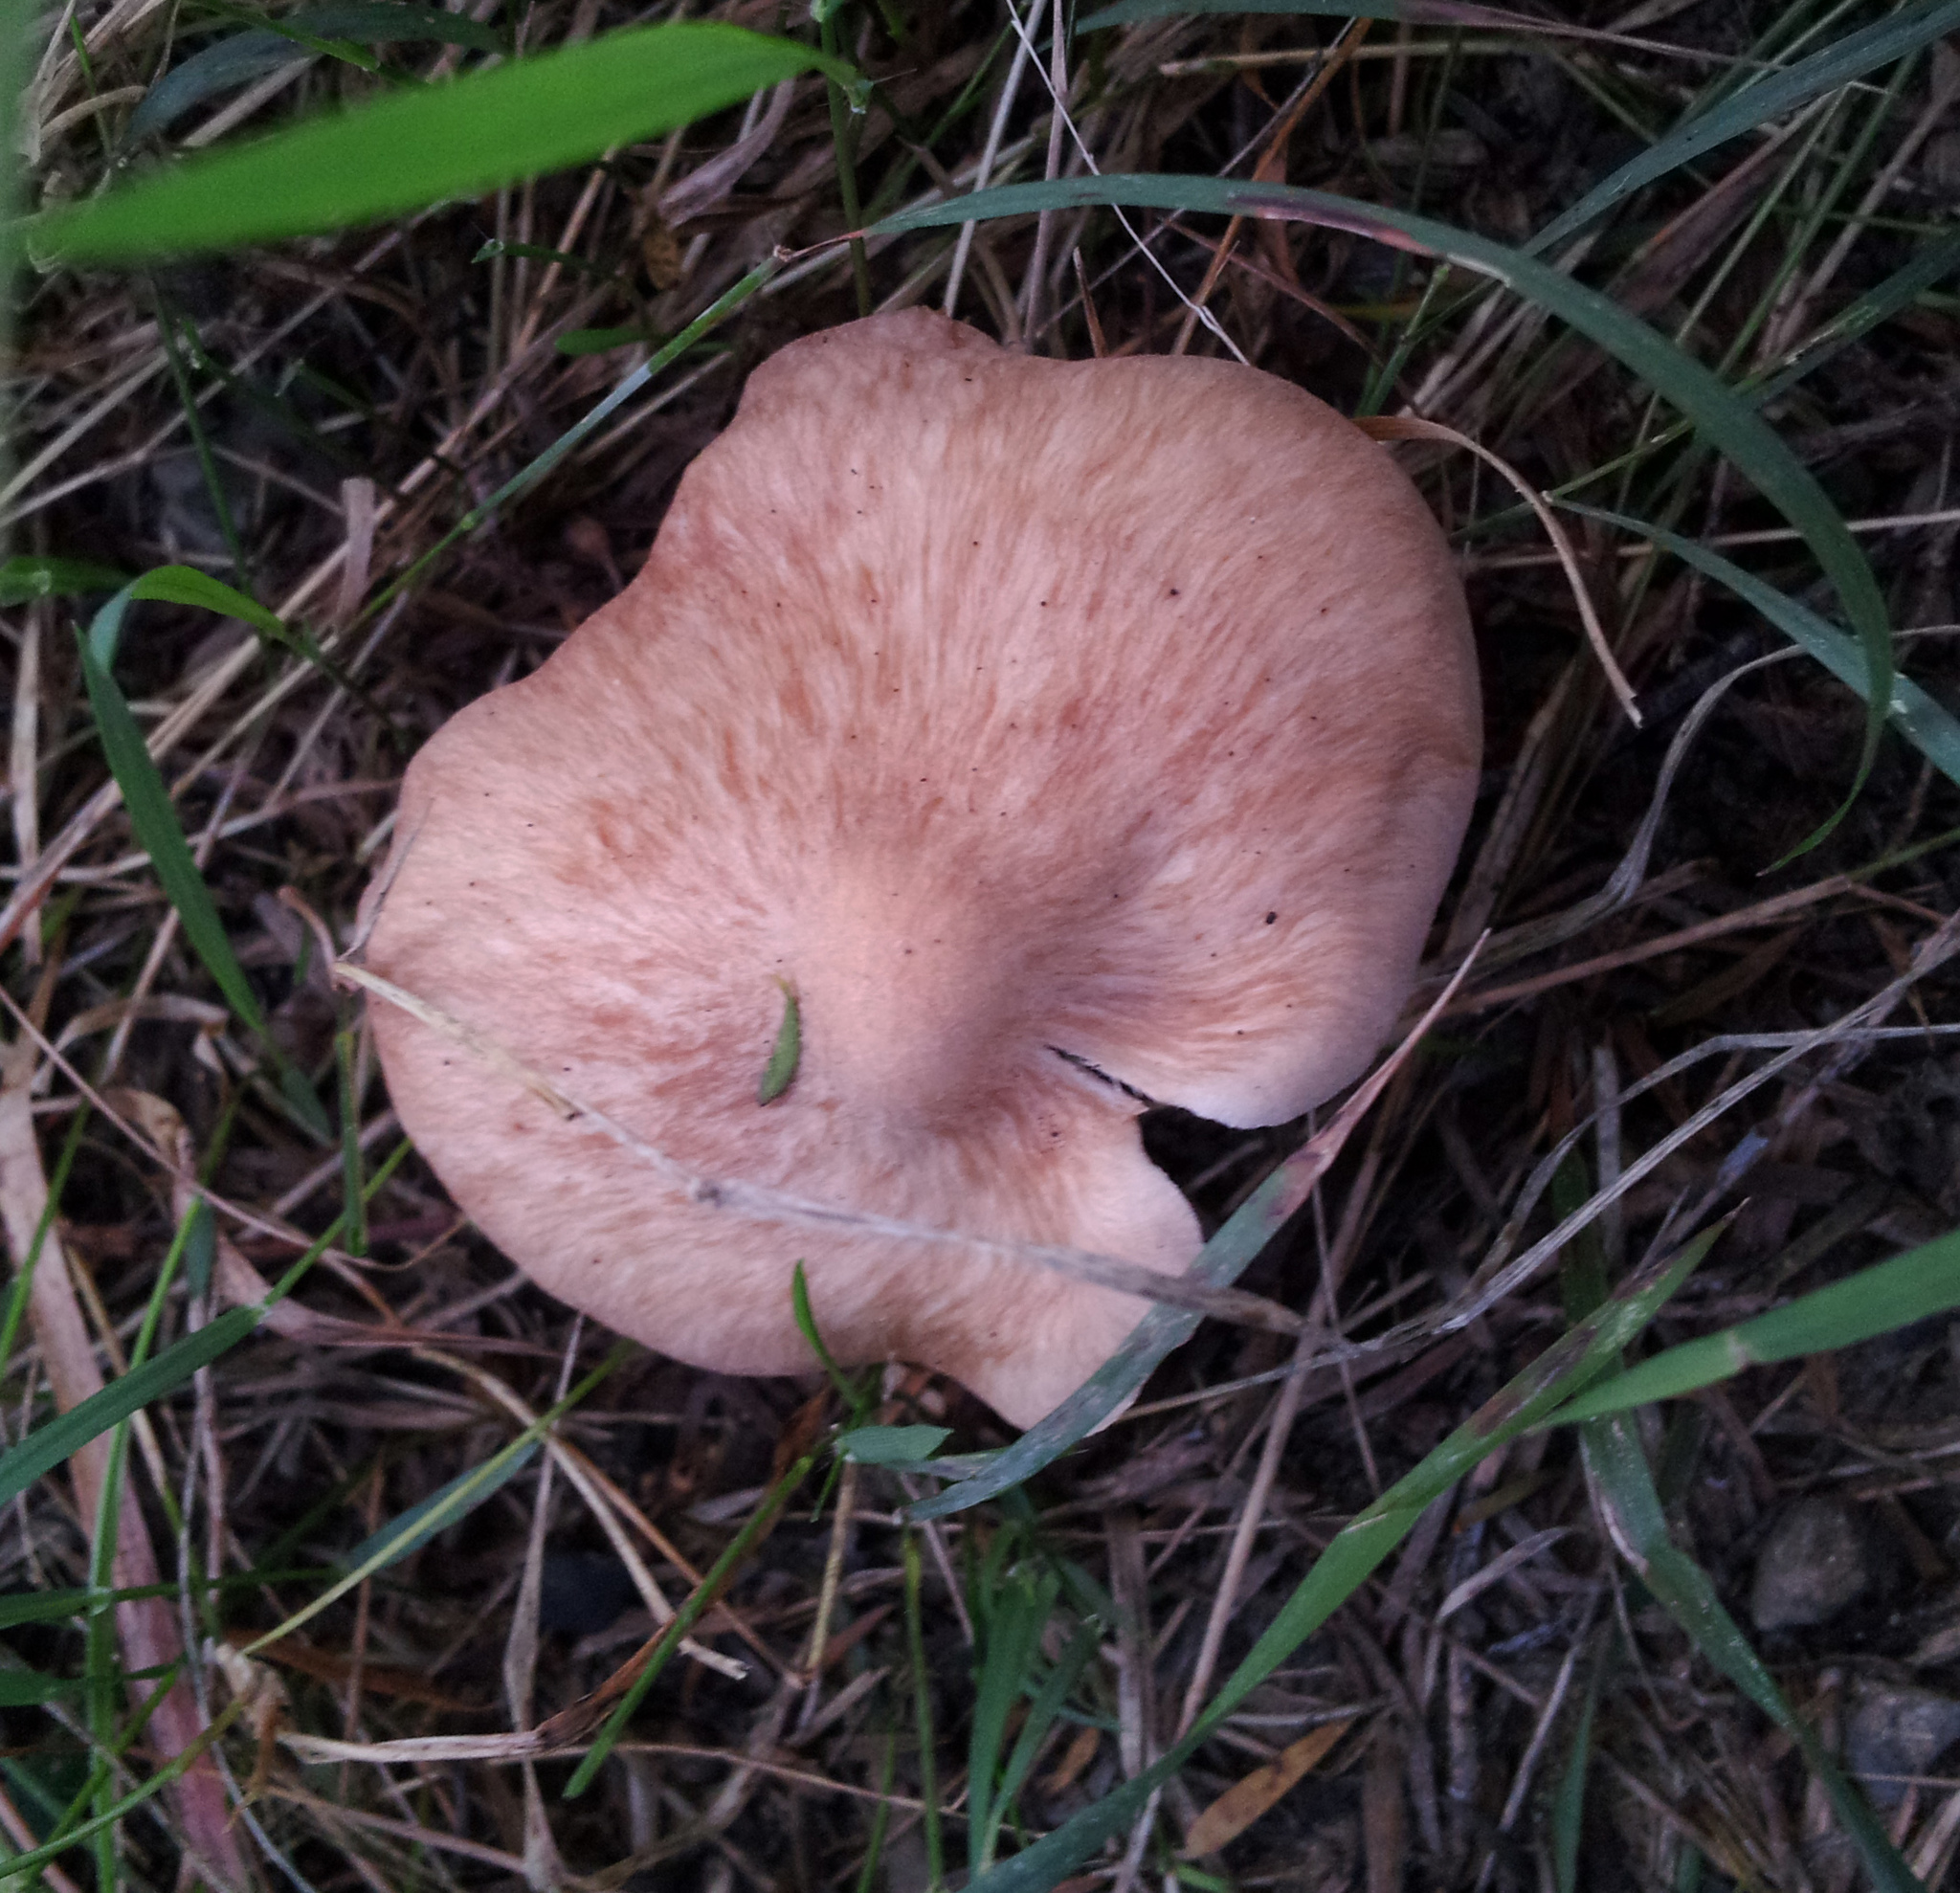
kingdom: Fungi
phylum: Basidiomycota
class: Agaricomycetes
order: Agaricales
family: Entolomataceae
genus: Clitopilus
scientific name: Clitopilus piperitus
